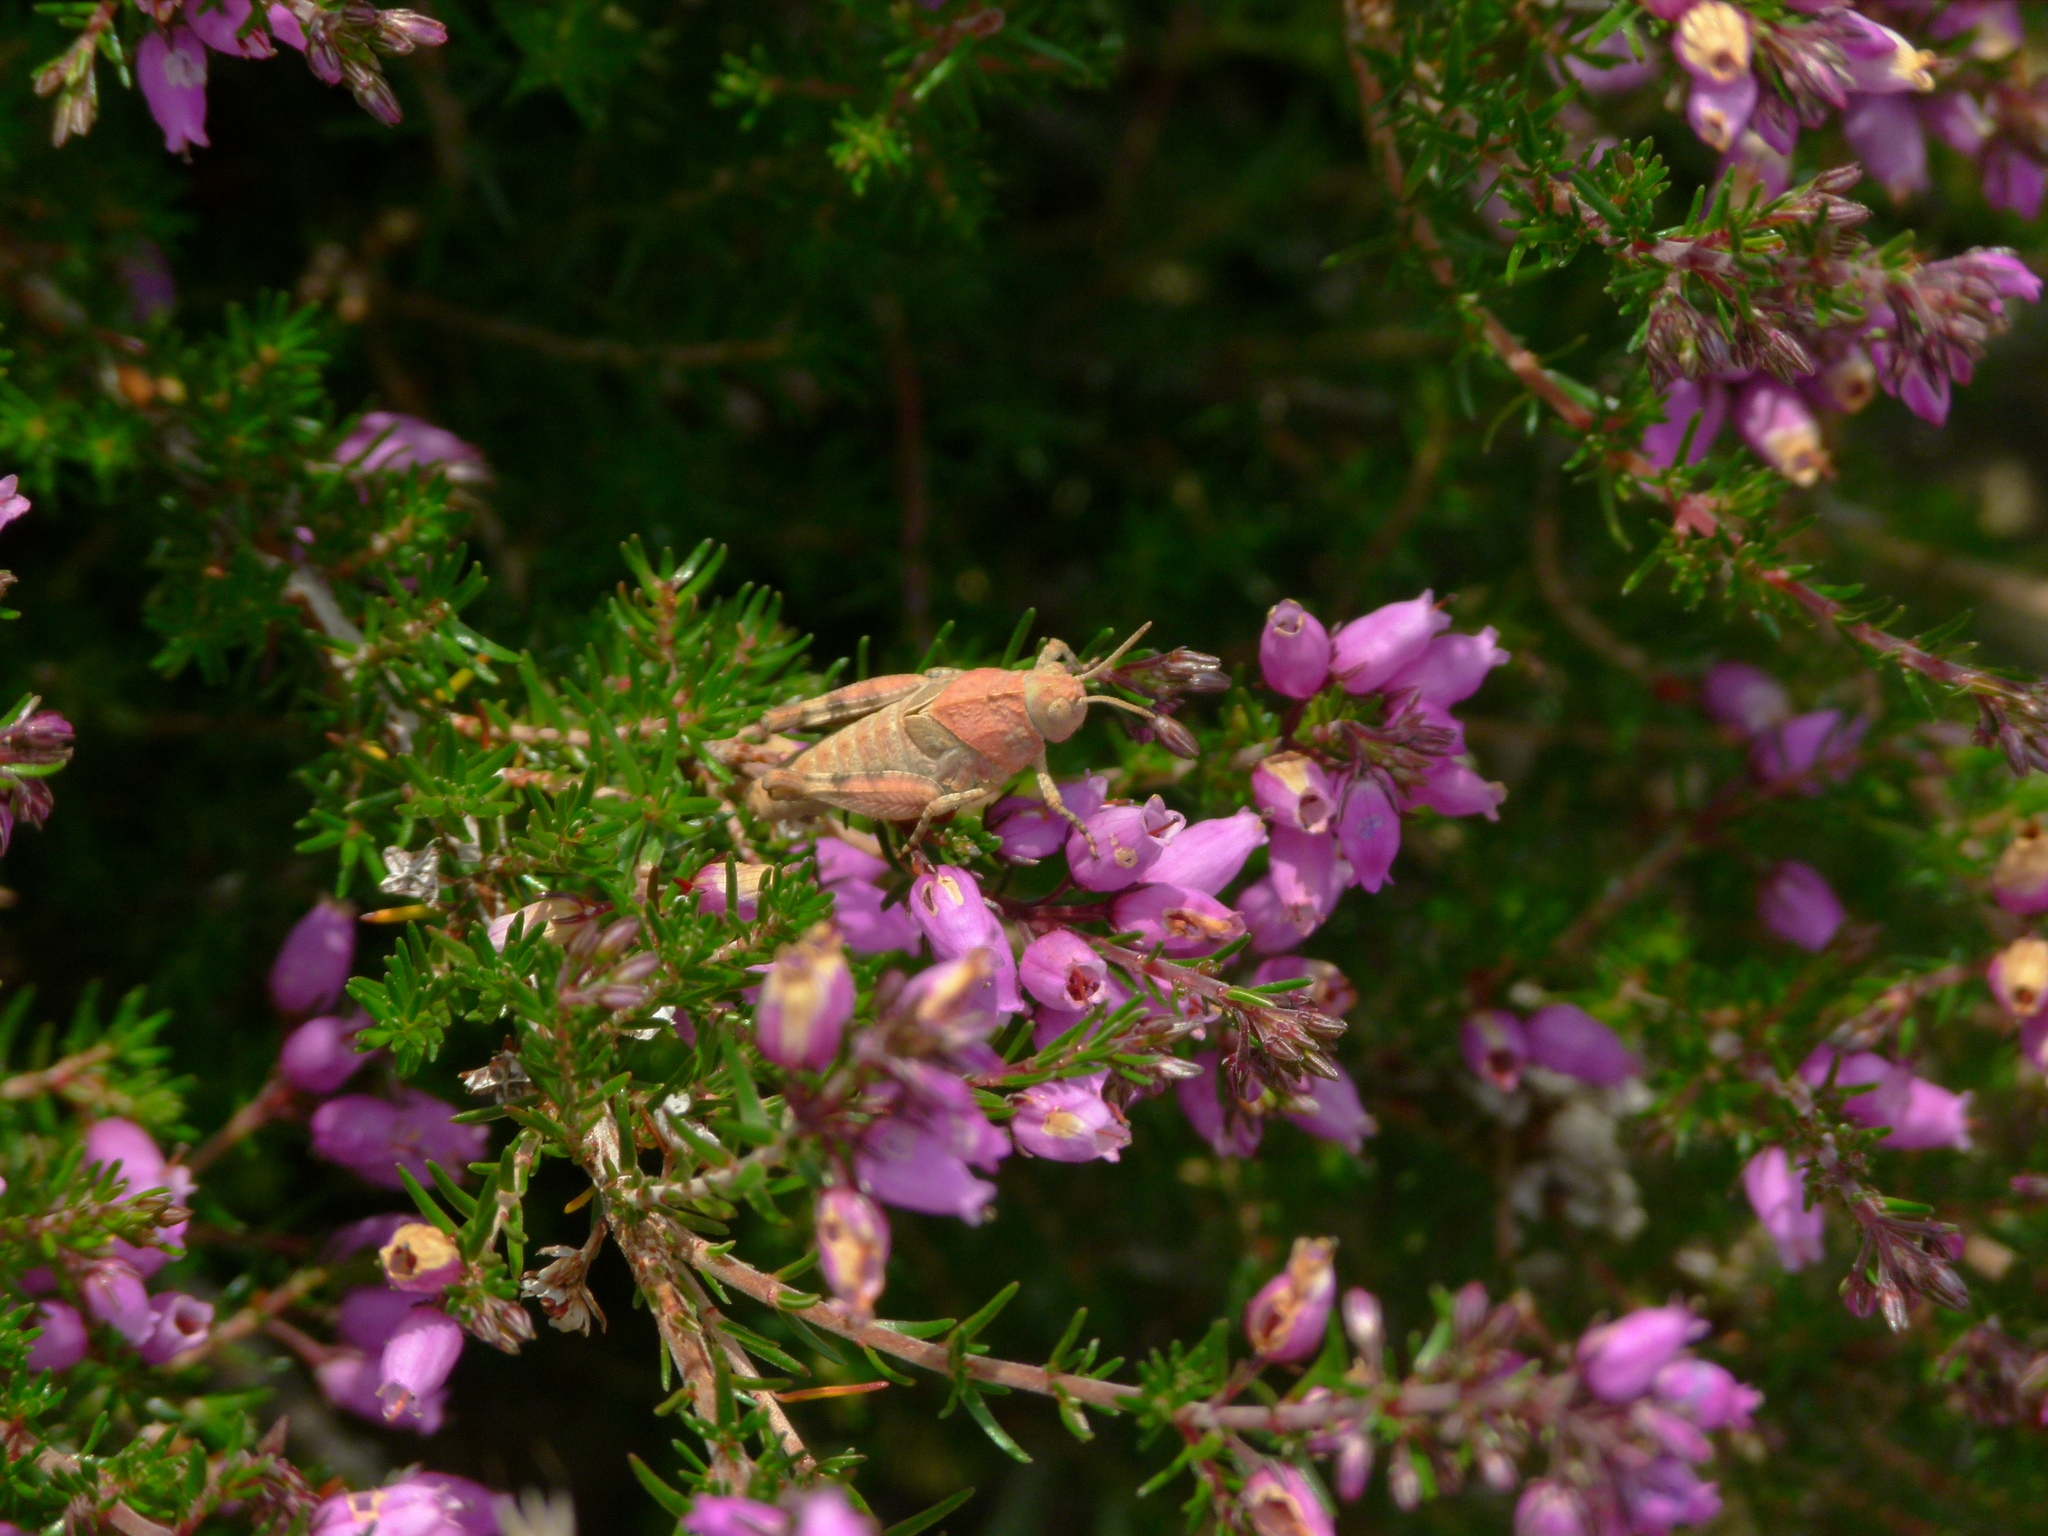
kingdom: Animalia
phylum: Arthropoda
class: Insecta
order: Orthoptera
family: Acrididae
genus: Oedipoda
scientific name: Oedipoda caerulescens
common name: Blue-winged grasshopper
